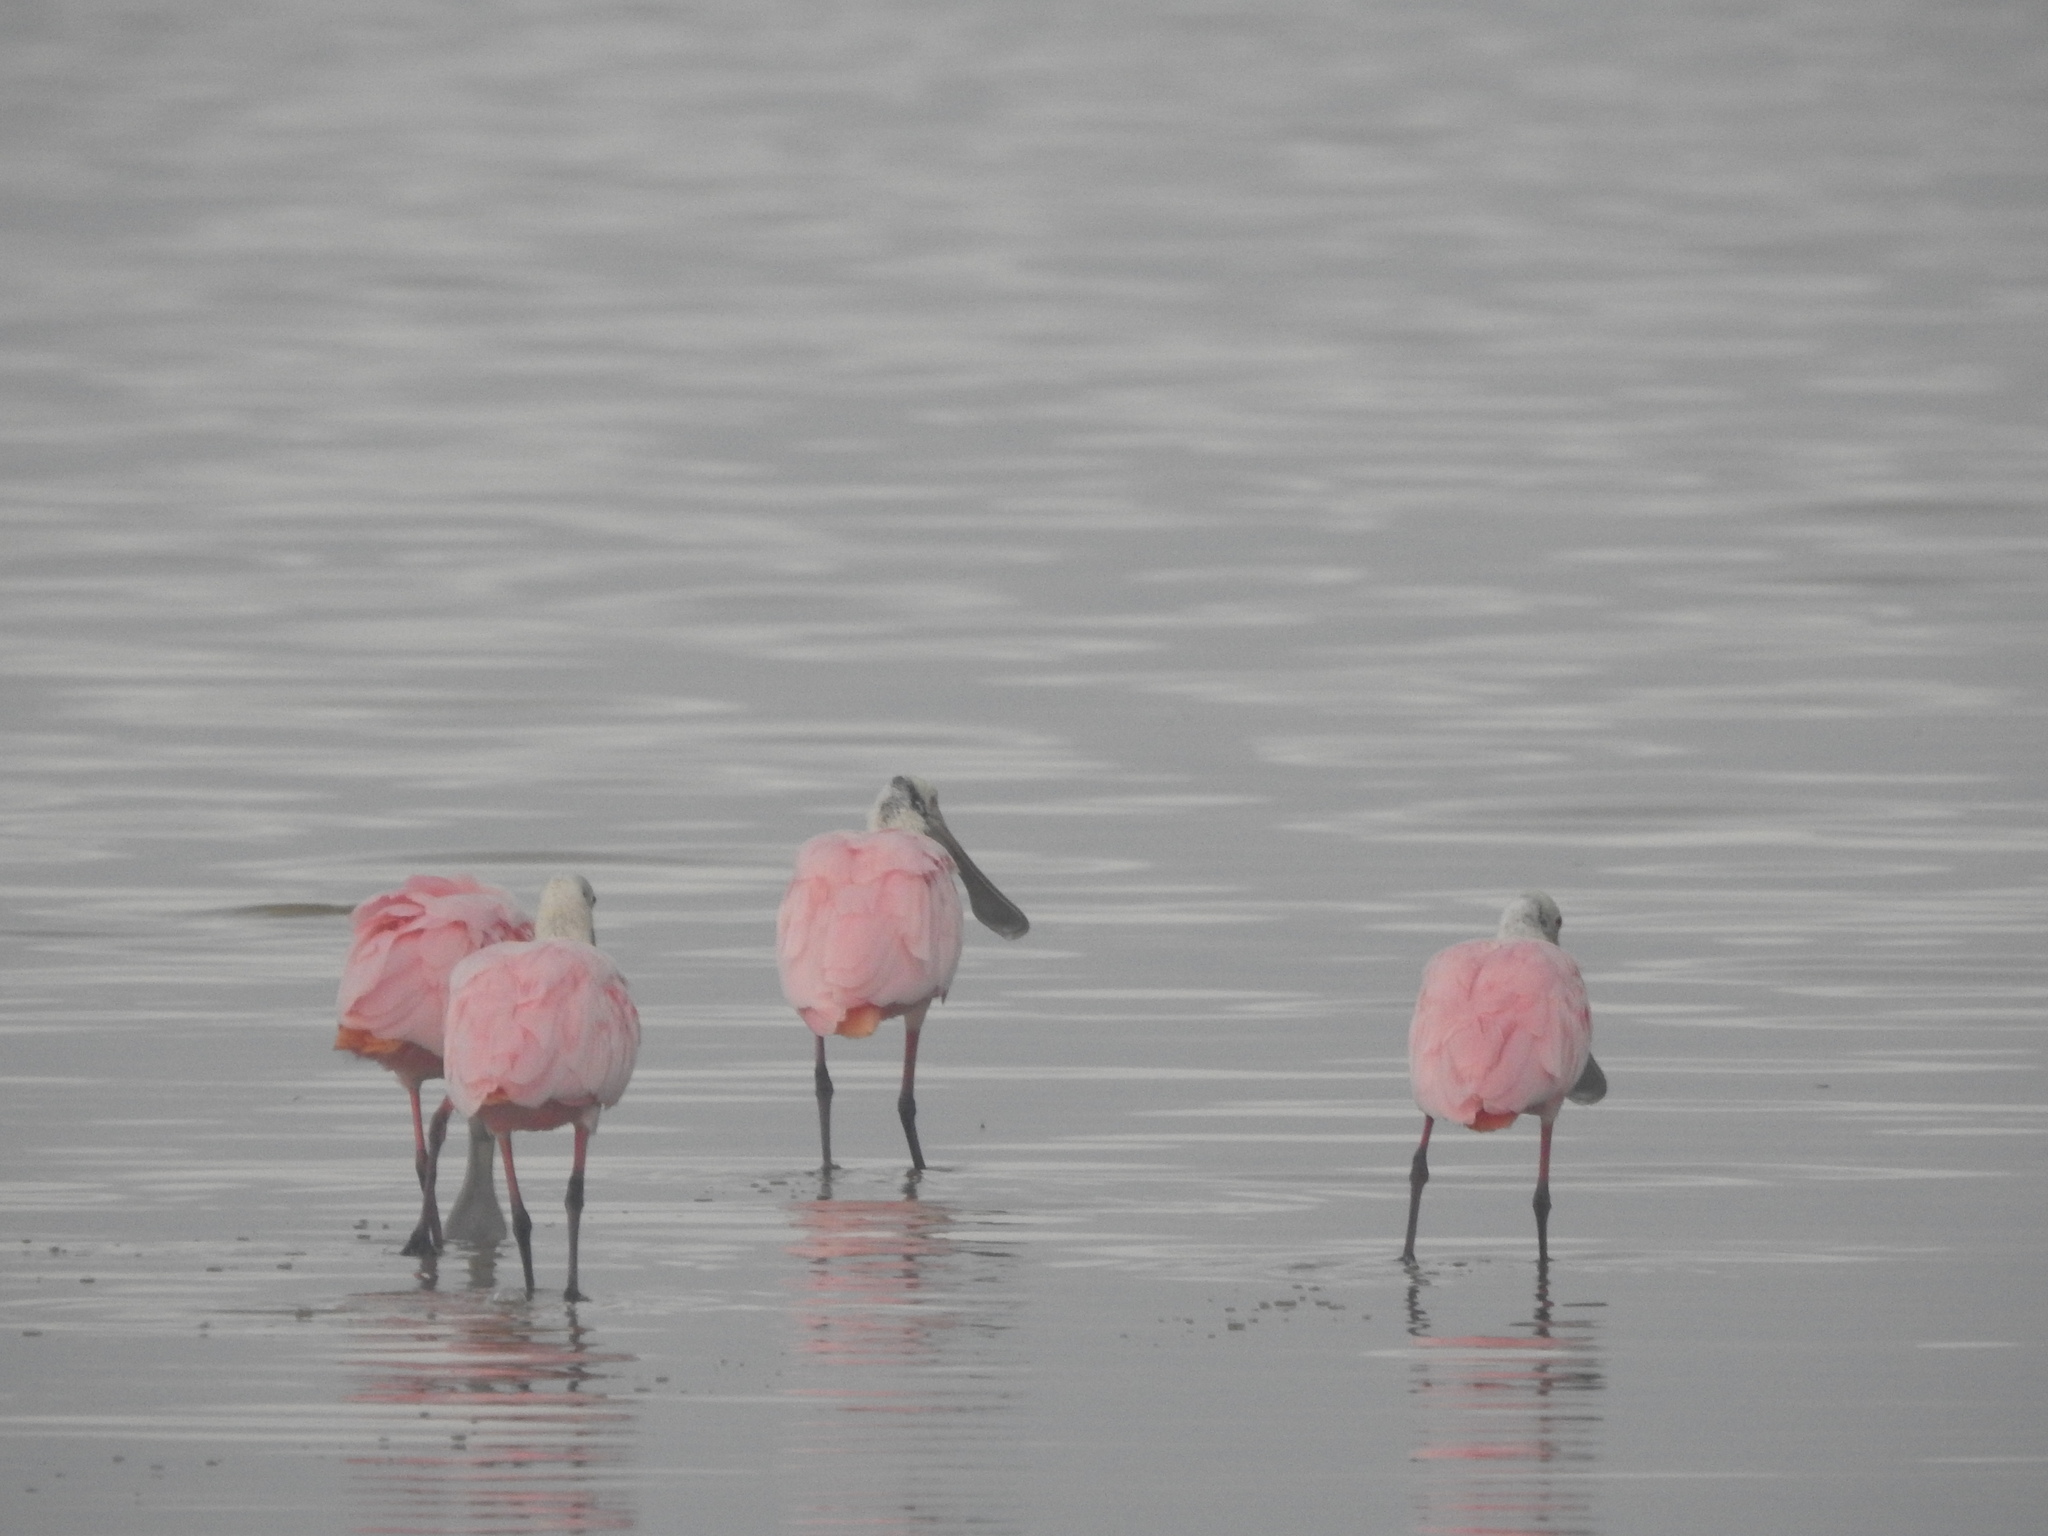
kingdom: Animalia
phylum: Chordata
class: Aves
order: Pelecaniformes
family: Threskiornithidae
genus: Platalea
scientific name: Platalea ajaja
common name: Roseate spoonbill
